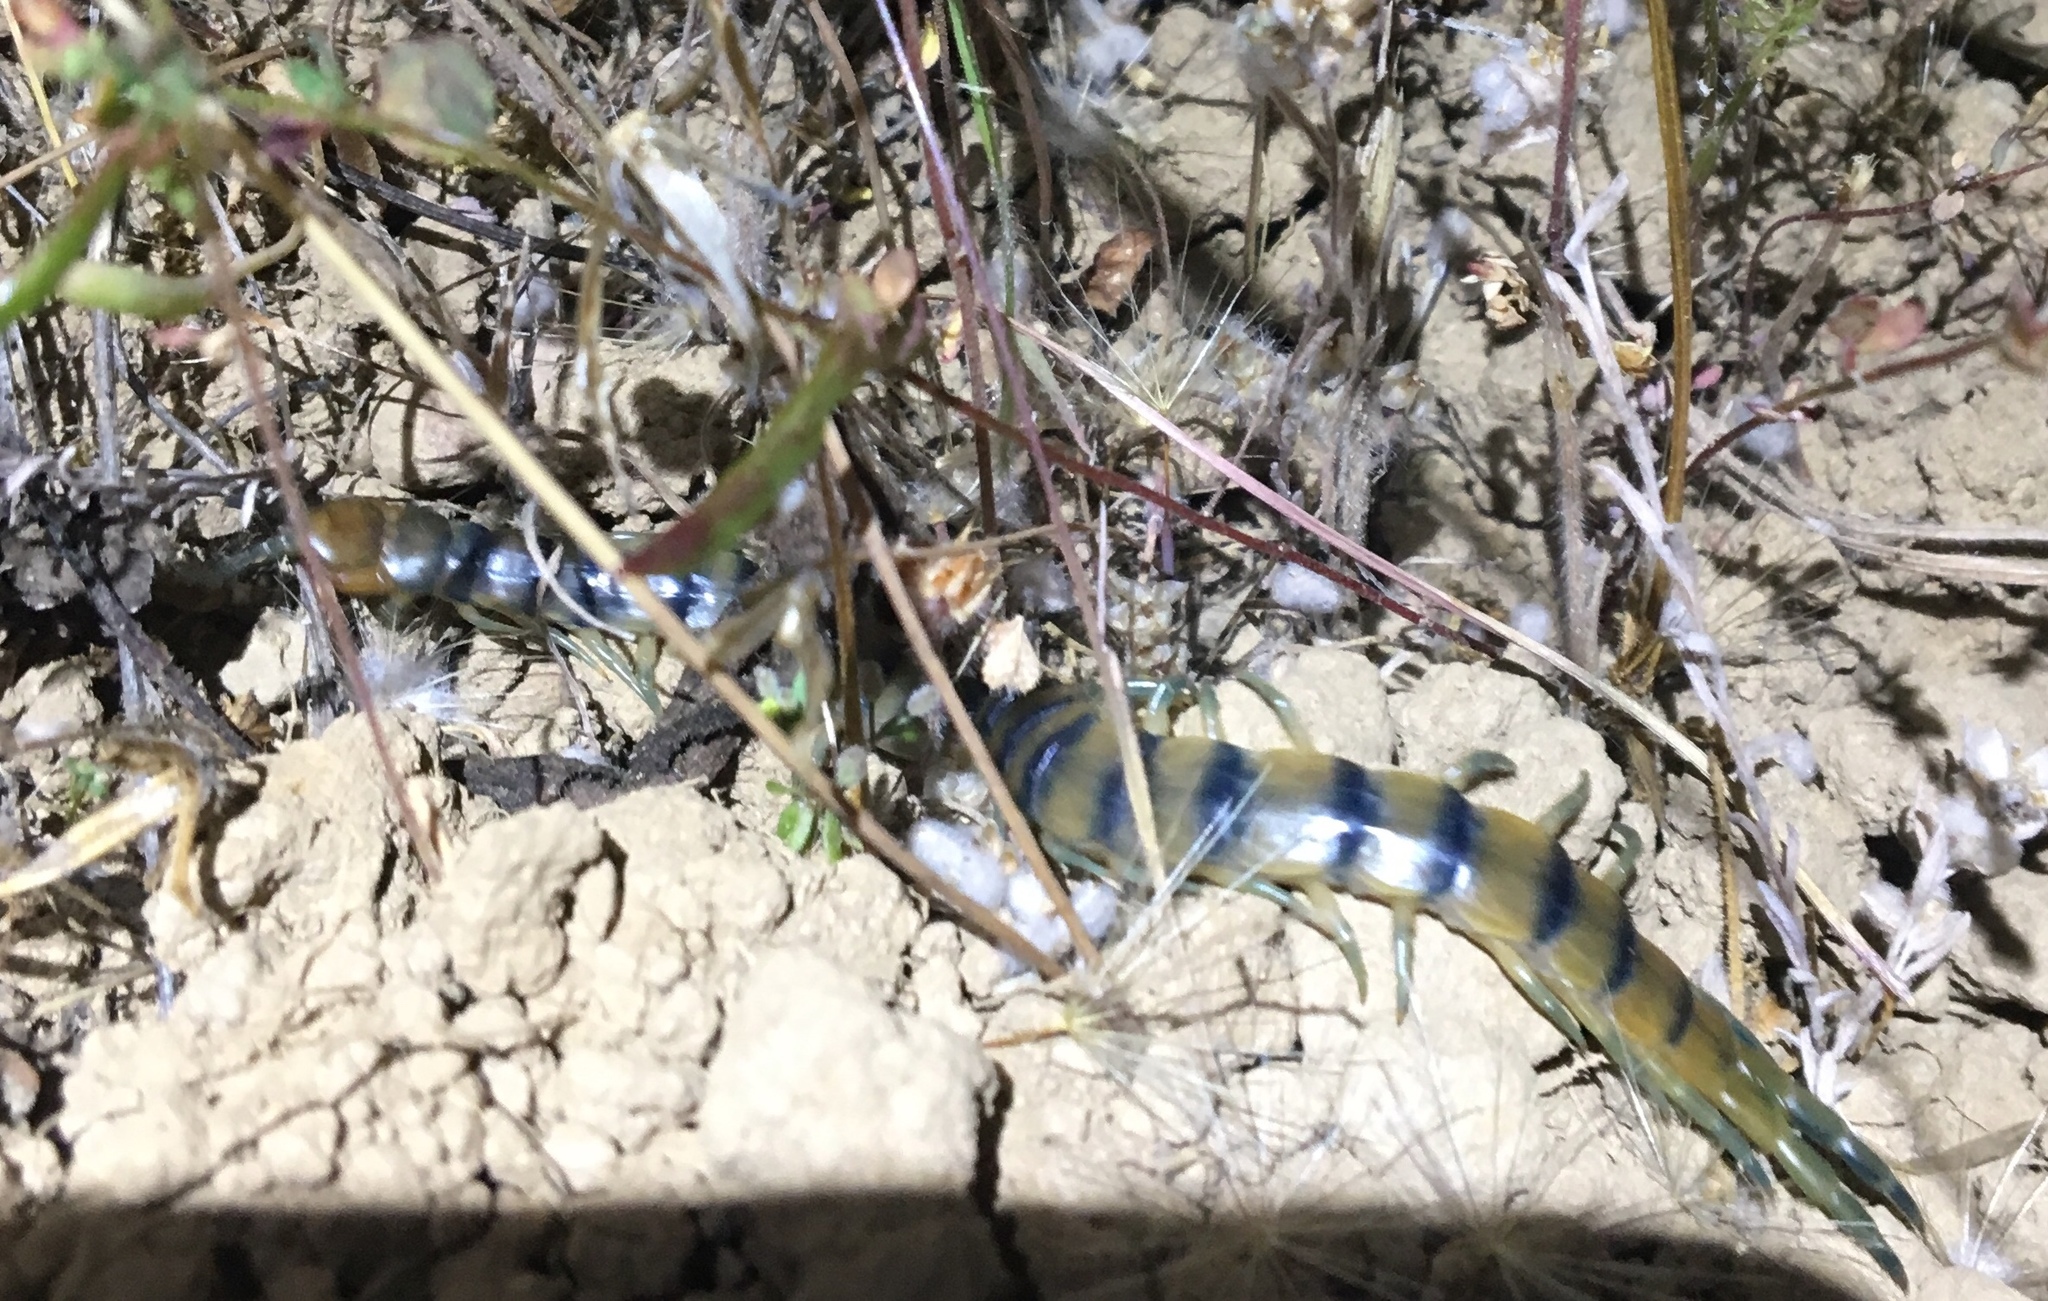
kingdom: Animalia
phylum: Arthropoda
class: Chilopoda
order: Scolopendromorpha
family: Scolopendridae
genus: Scolopendra
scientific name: Scolopendra polymorpha
